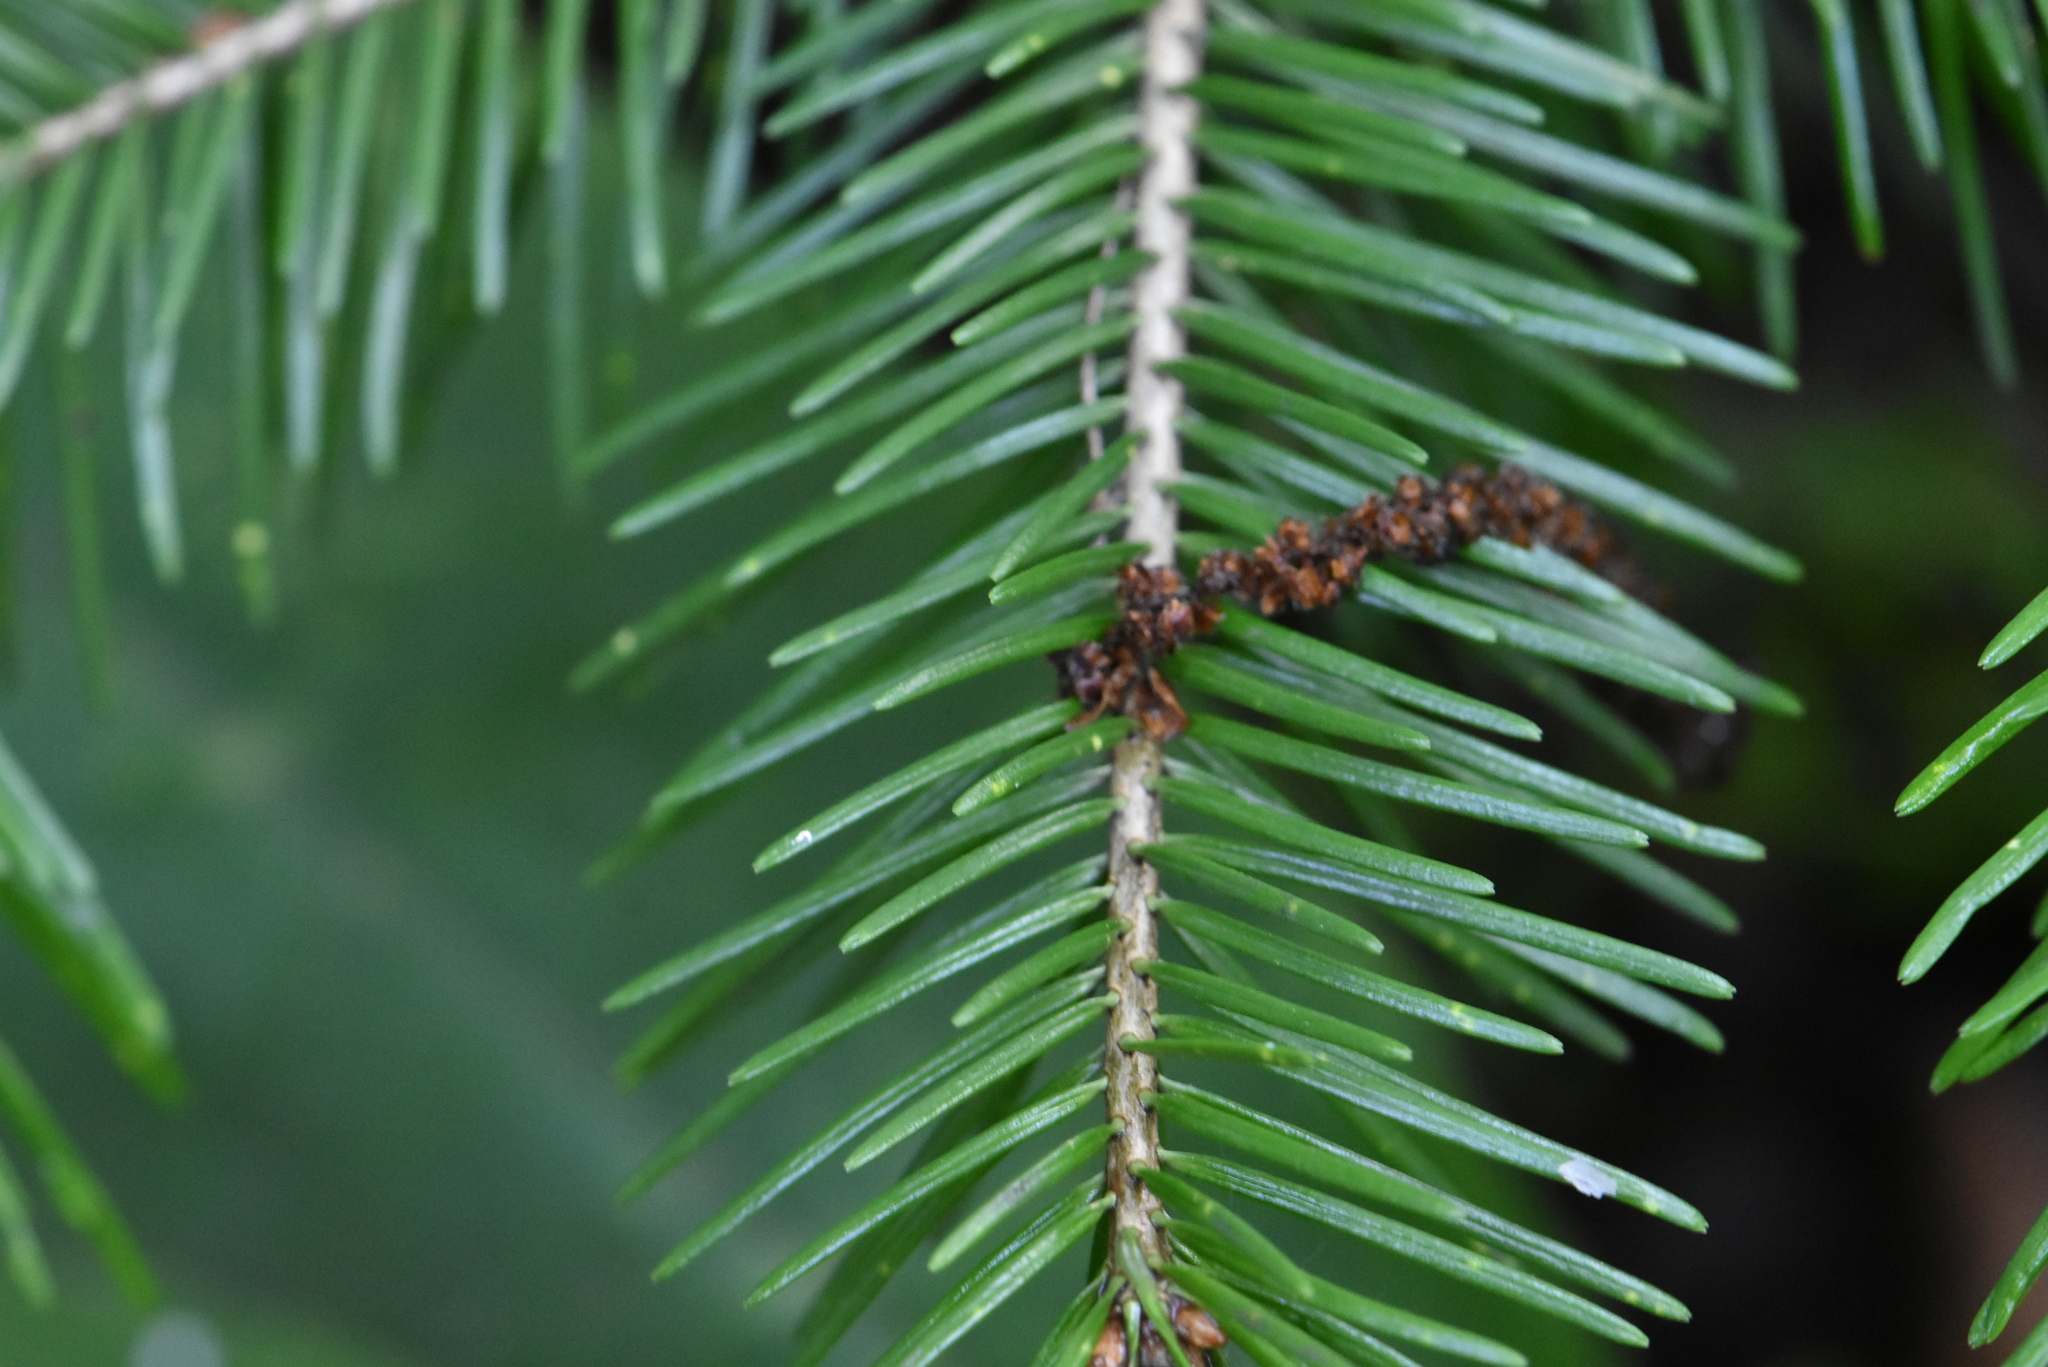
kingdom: Plantae
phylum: Tracheophyta
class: Pinopsida
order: Pinales
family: Pinaceae
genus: Abies
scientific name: Abies sibirica
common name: Siberian fir
